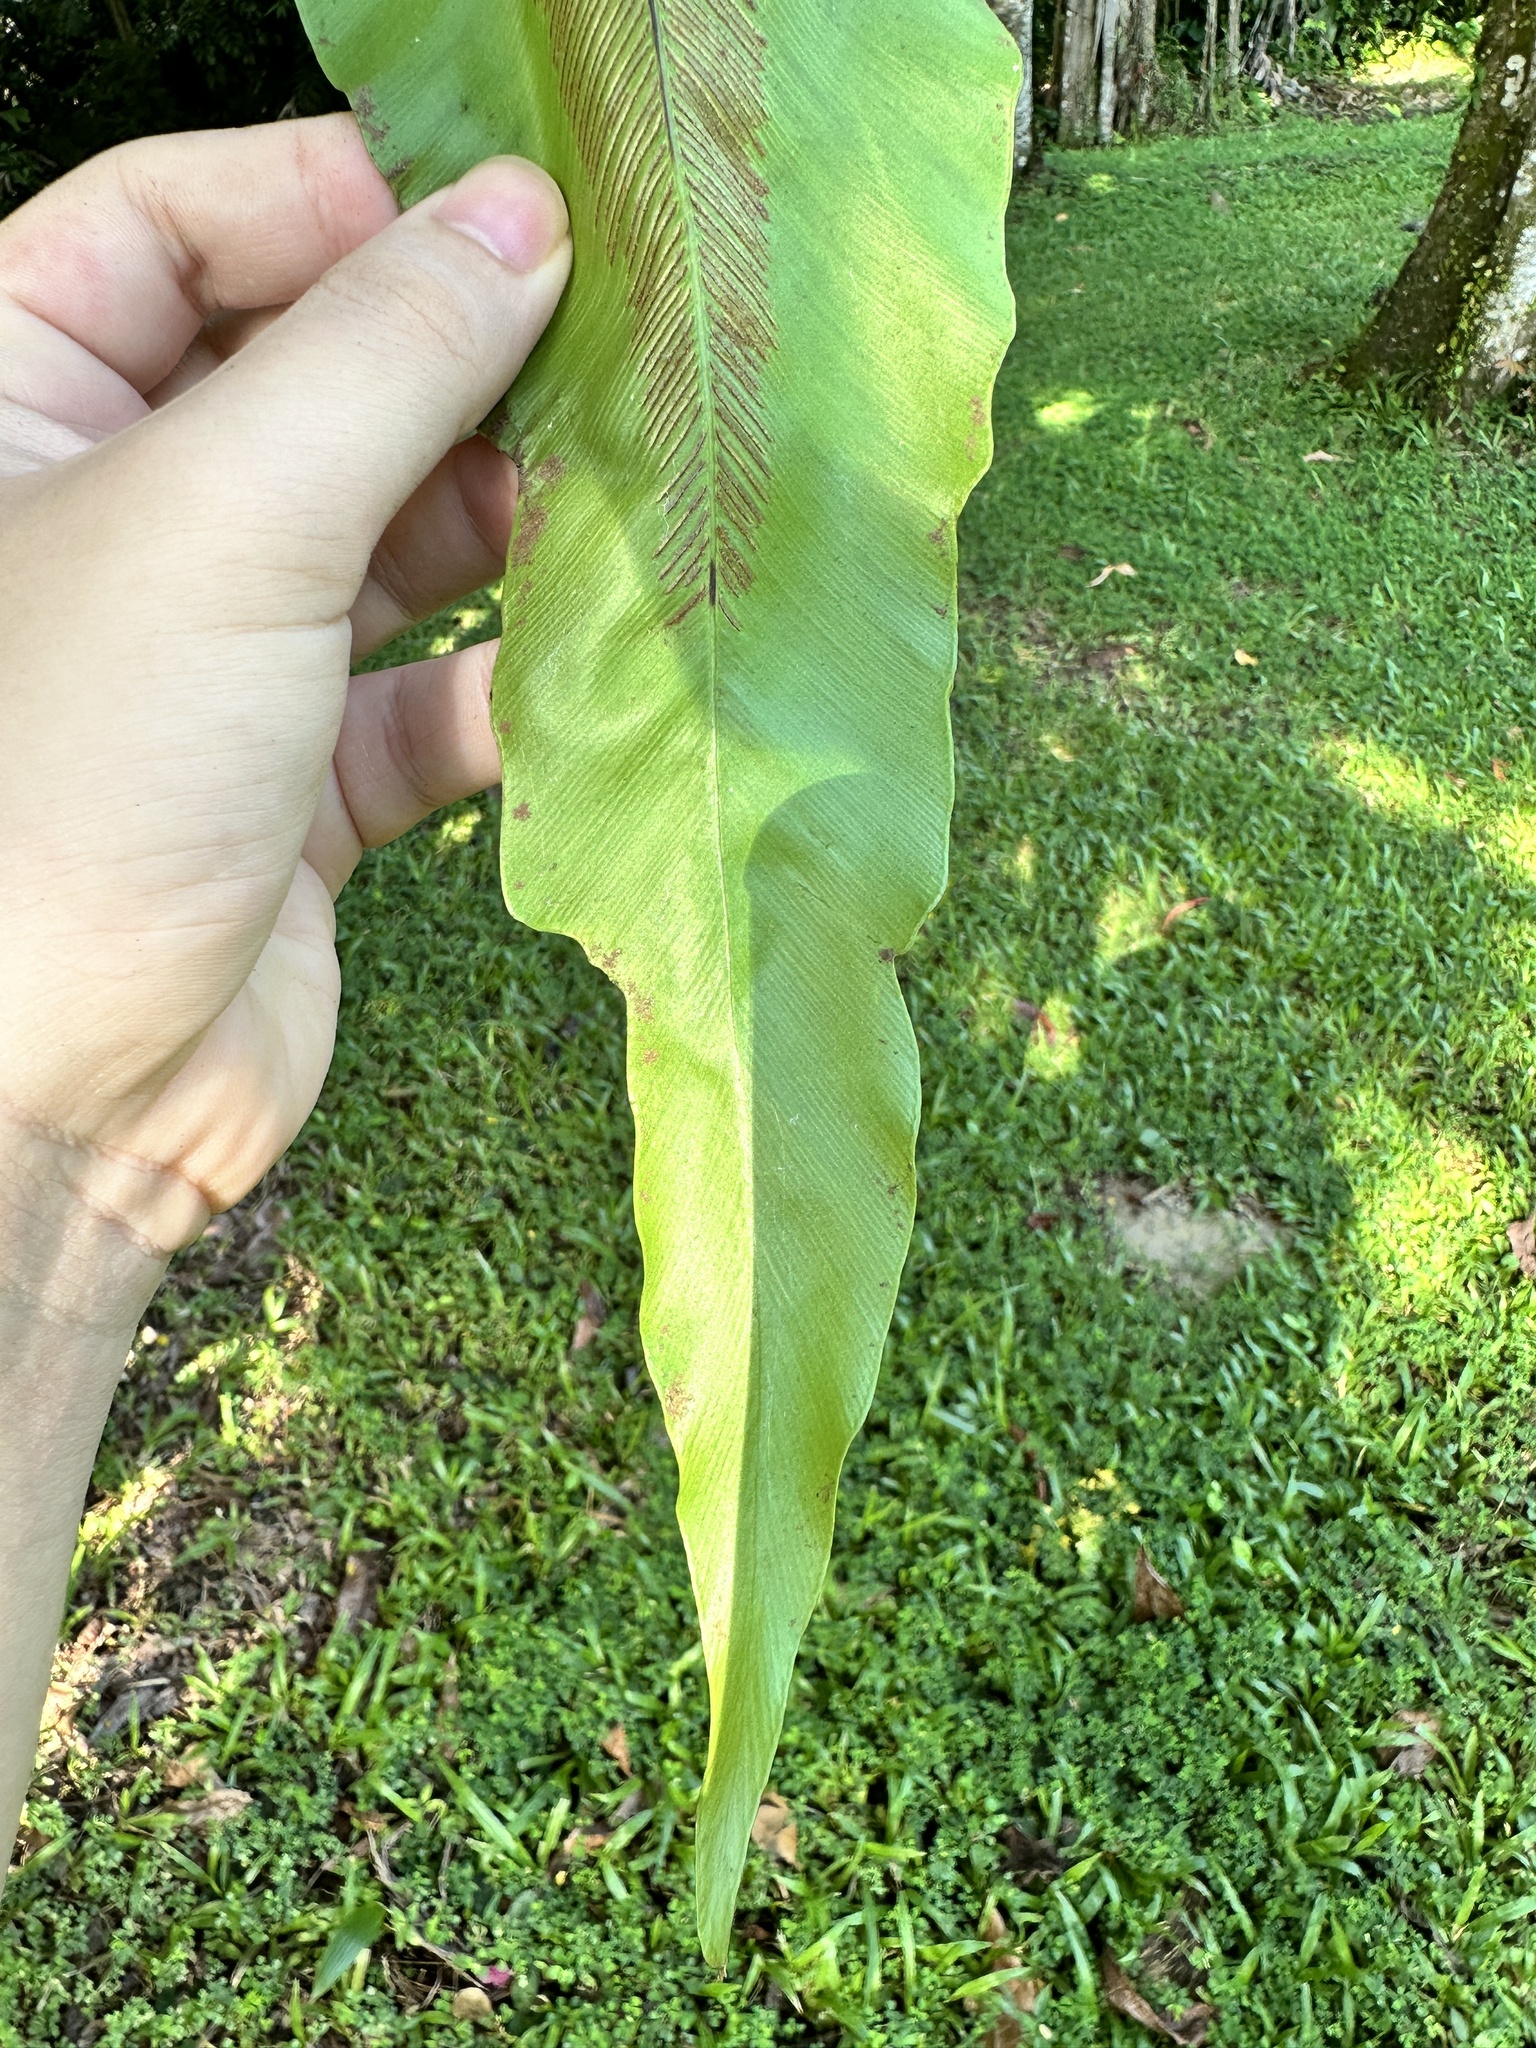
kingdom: Plantae
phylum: Tracheophyta
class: Polypodiopsida
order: Polypodiales
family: Aspleniaceae
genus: Asplenium
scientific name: Asplenium nidus
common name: Bird's-nest fern
